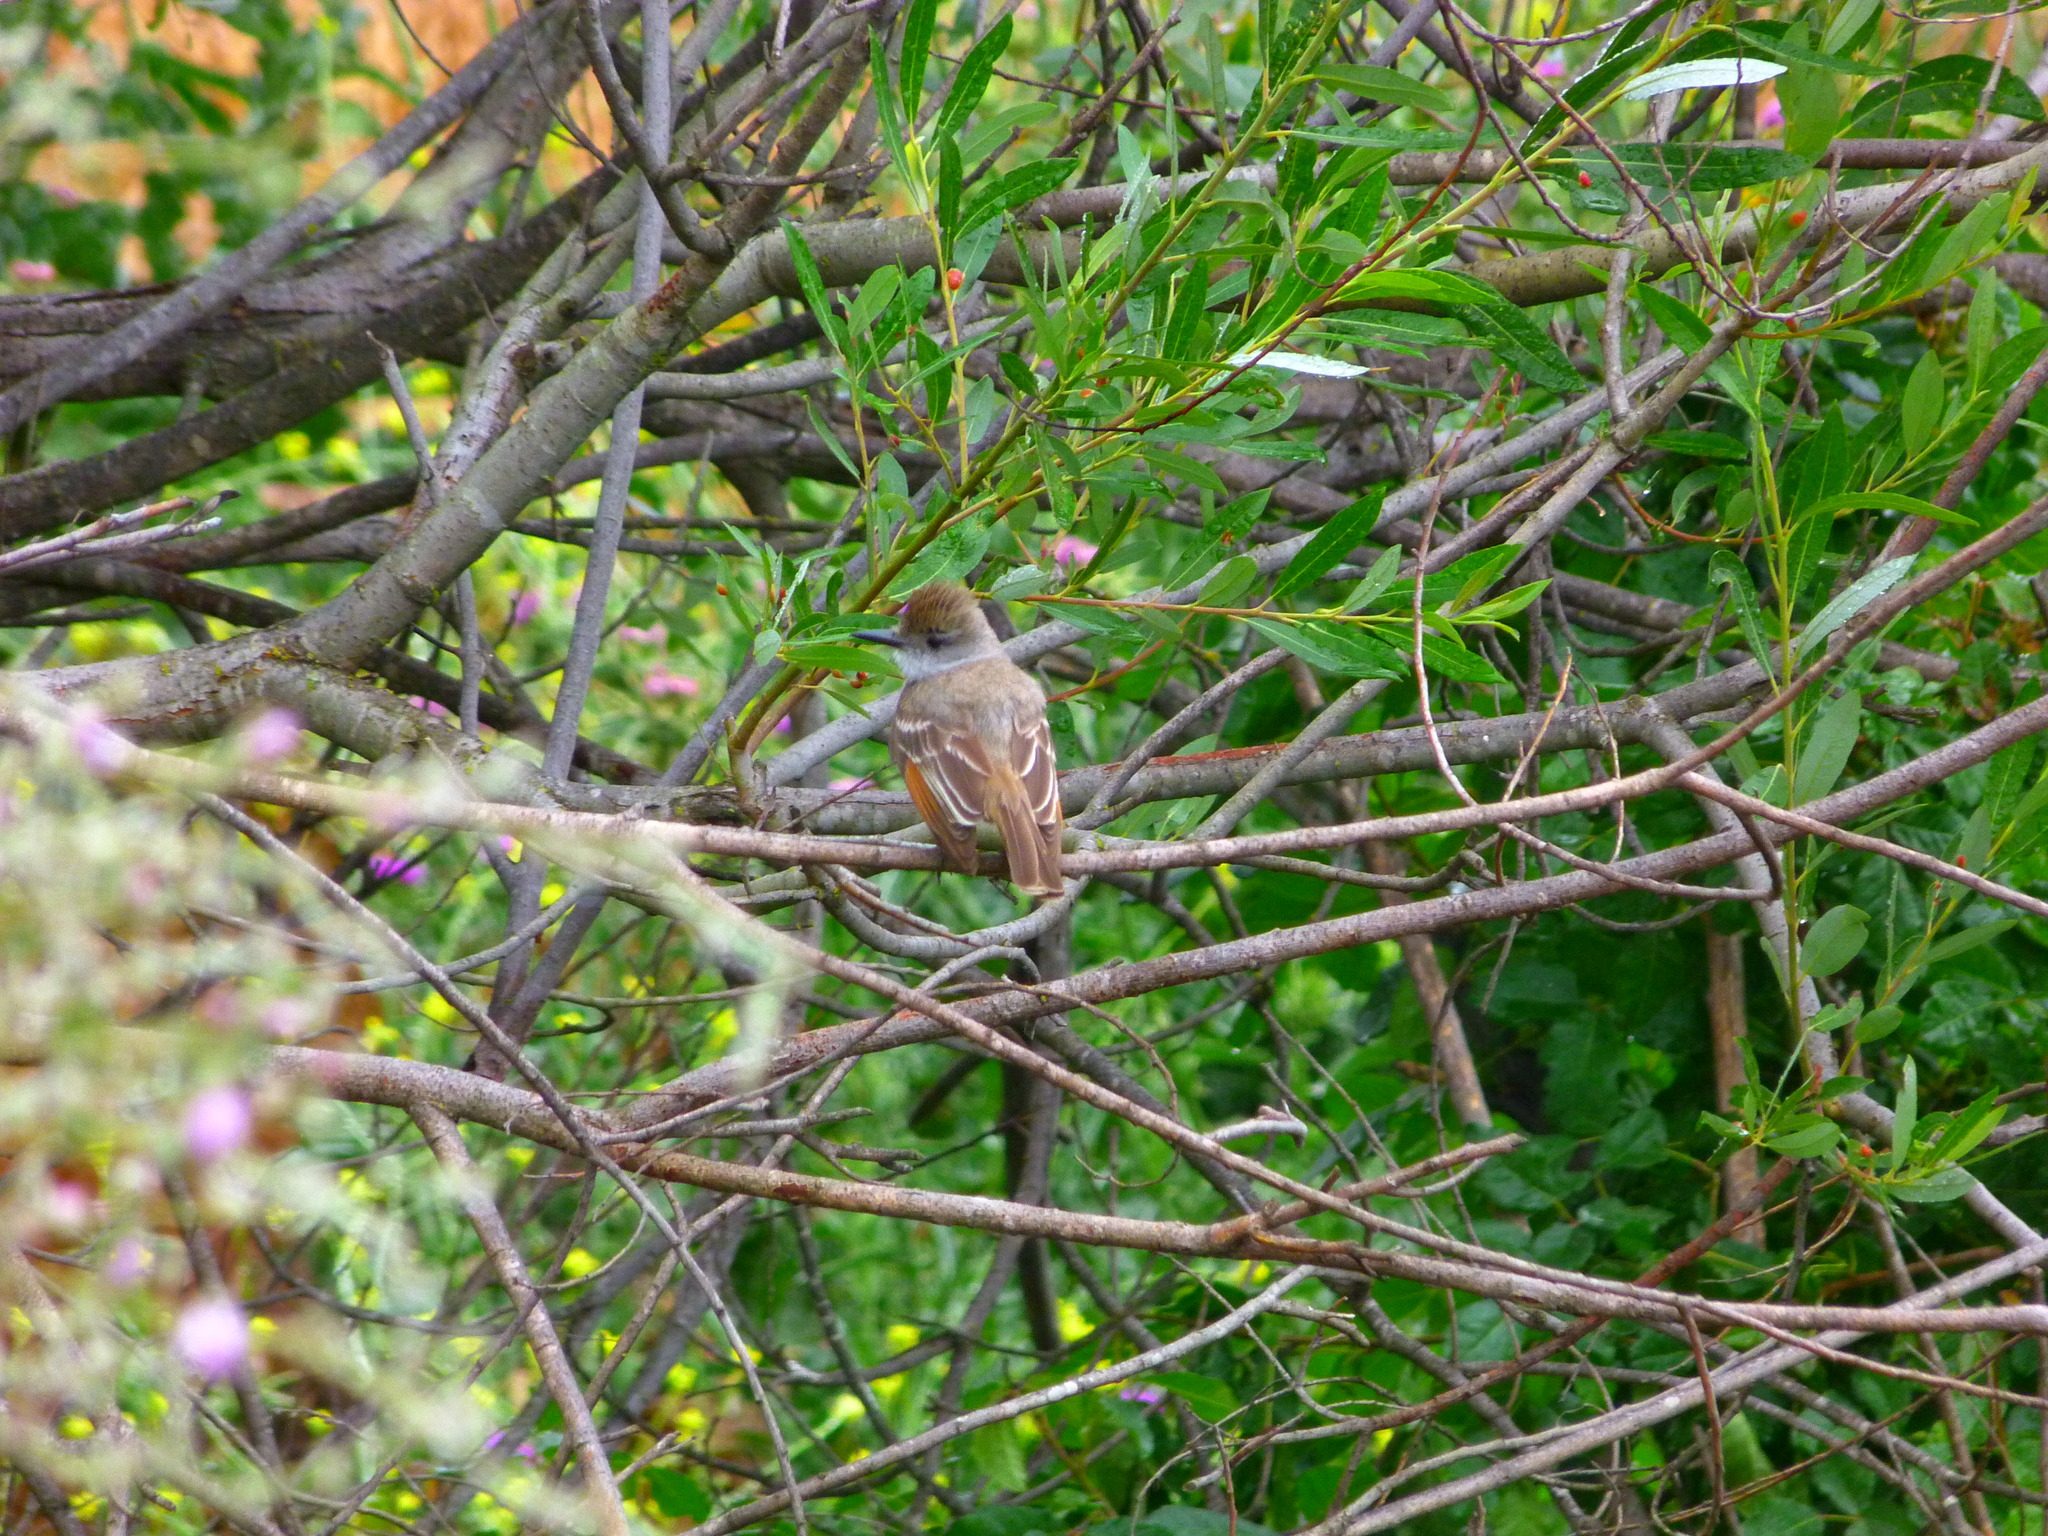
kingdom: Animalia
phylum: Chordata
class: Aves
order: Passeriformes
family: Tyrannidae
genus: Myiarchus
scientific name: Myiarchus cinerascens
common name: Ash-throated flycatcher
